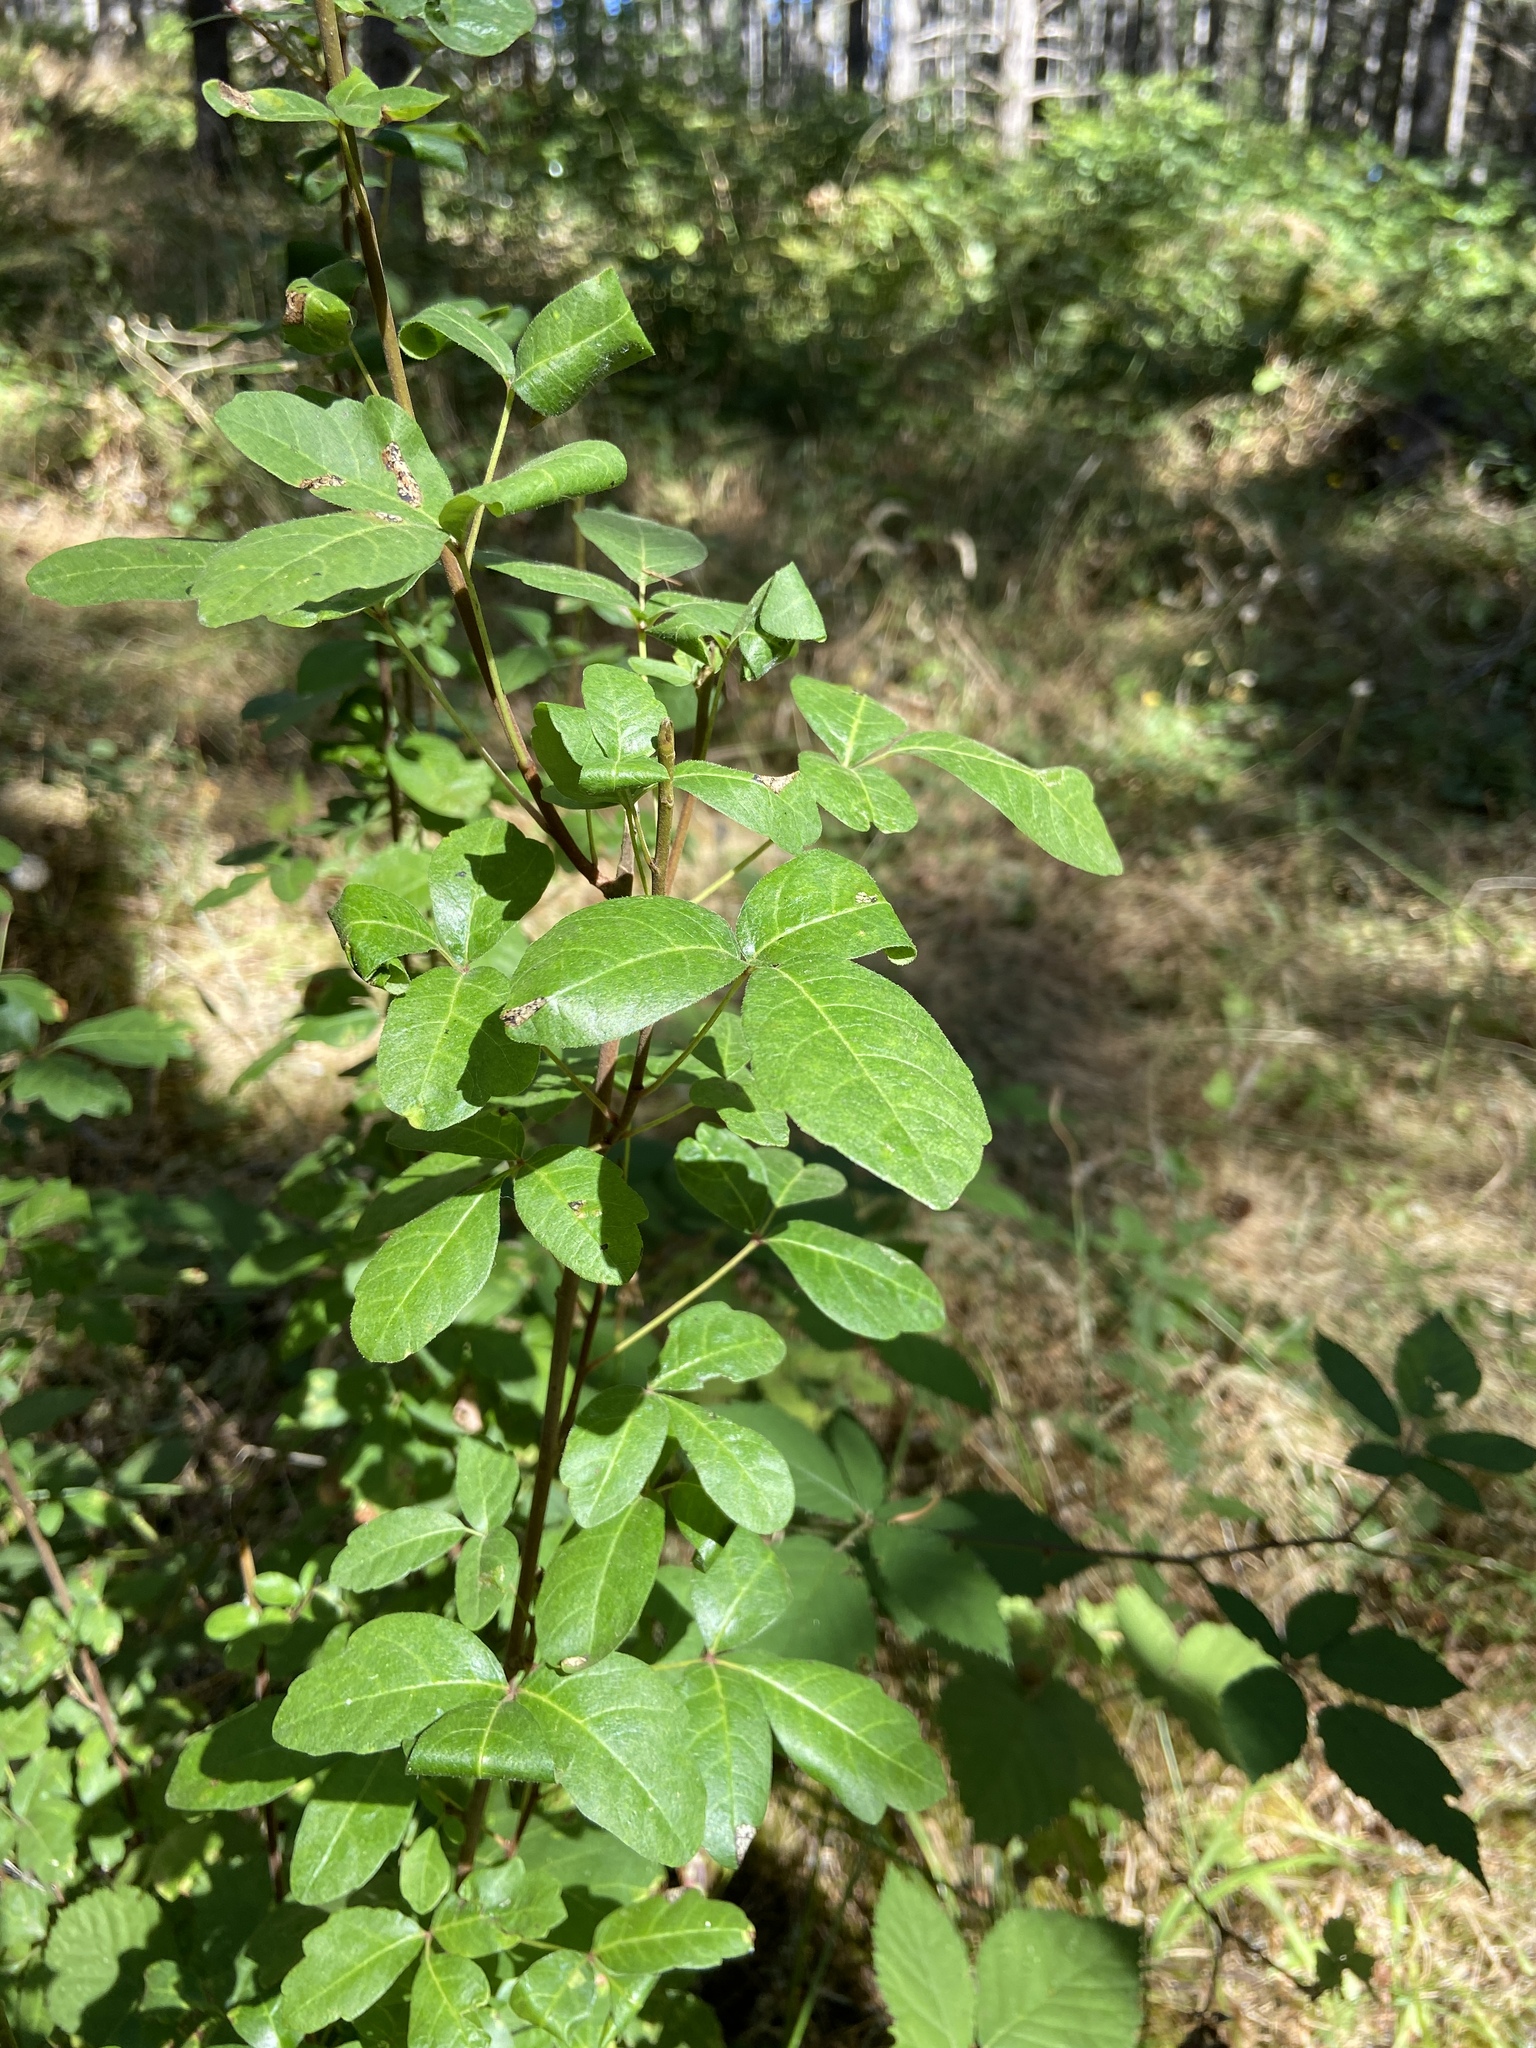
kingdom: Plantae
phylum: Tracheophyta
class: Magnoliopsida
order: Sapindales
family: Anacardiaceae
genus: Toxicodendron
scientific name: Toxicodendron diversilobum
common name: Pacific poison-oak
